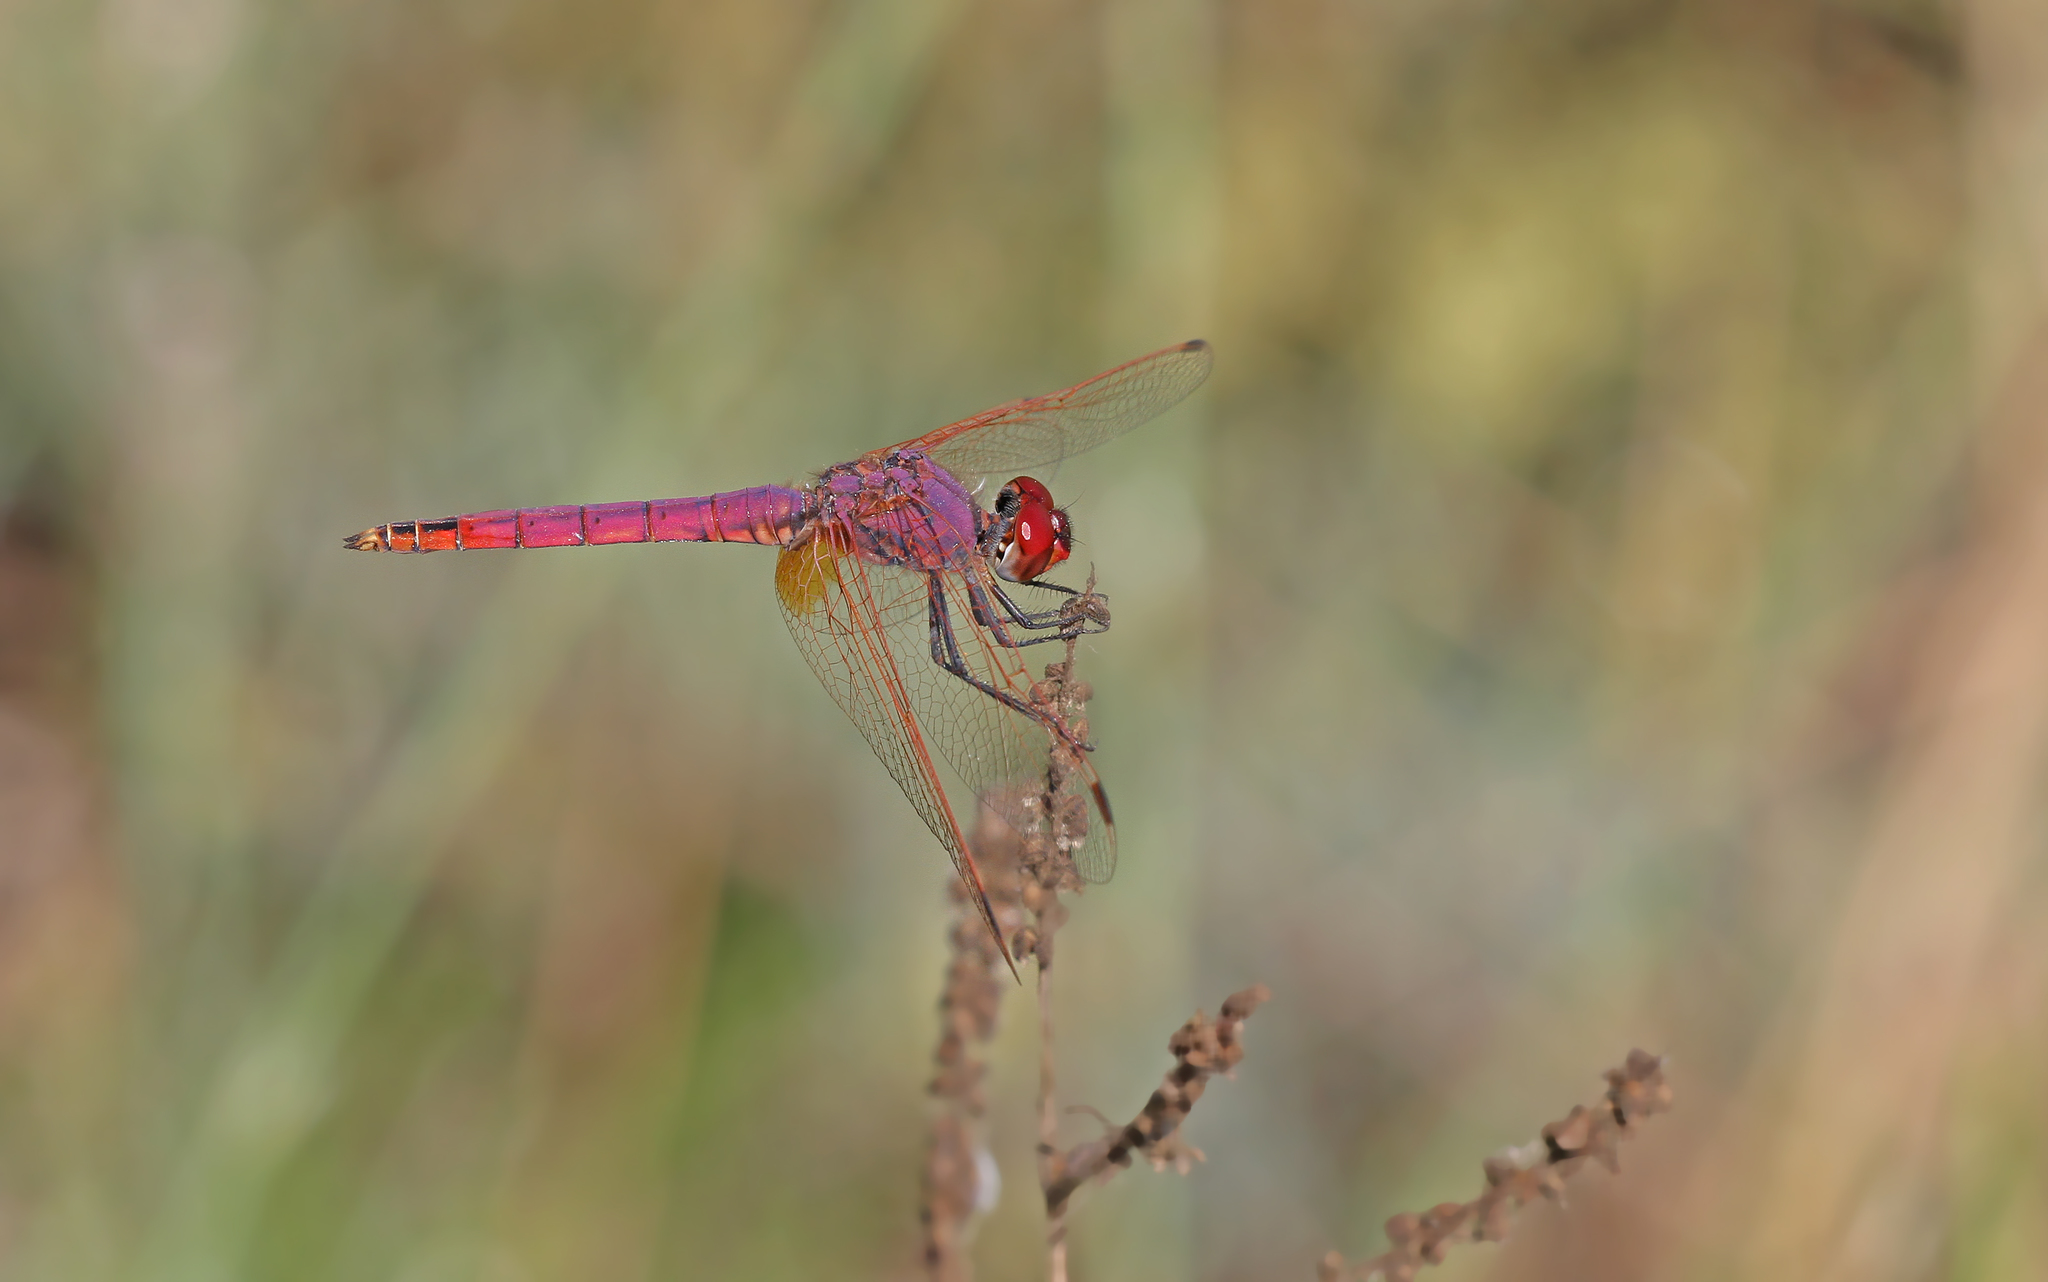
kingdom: Animalia
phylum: Arthropoda
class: Insecta
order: Odonata
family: Libellulidae
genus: Trithemis
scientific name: Trithemis annulata
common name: Violet dropwing
